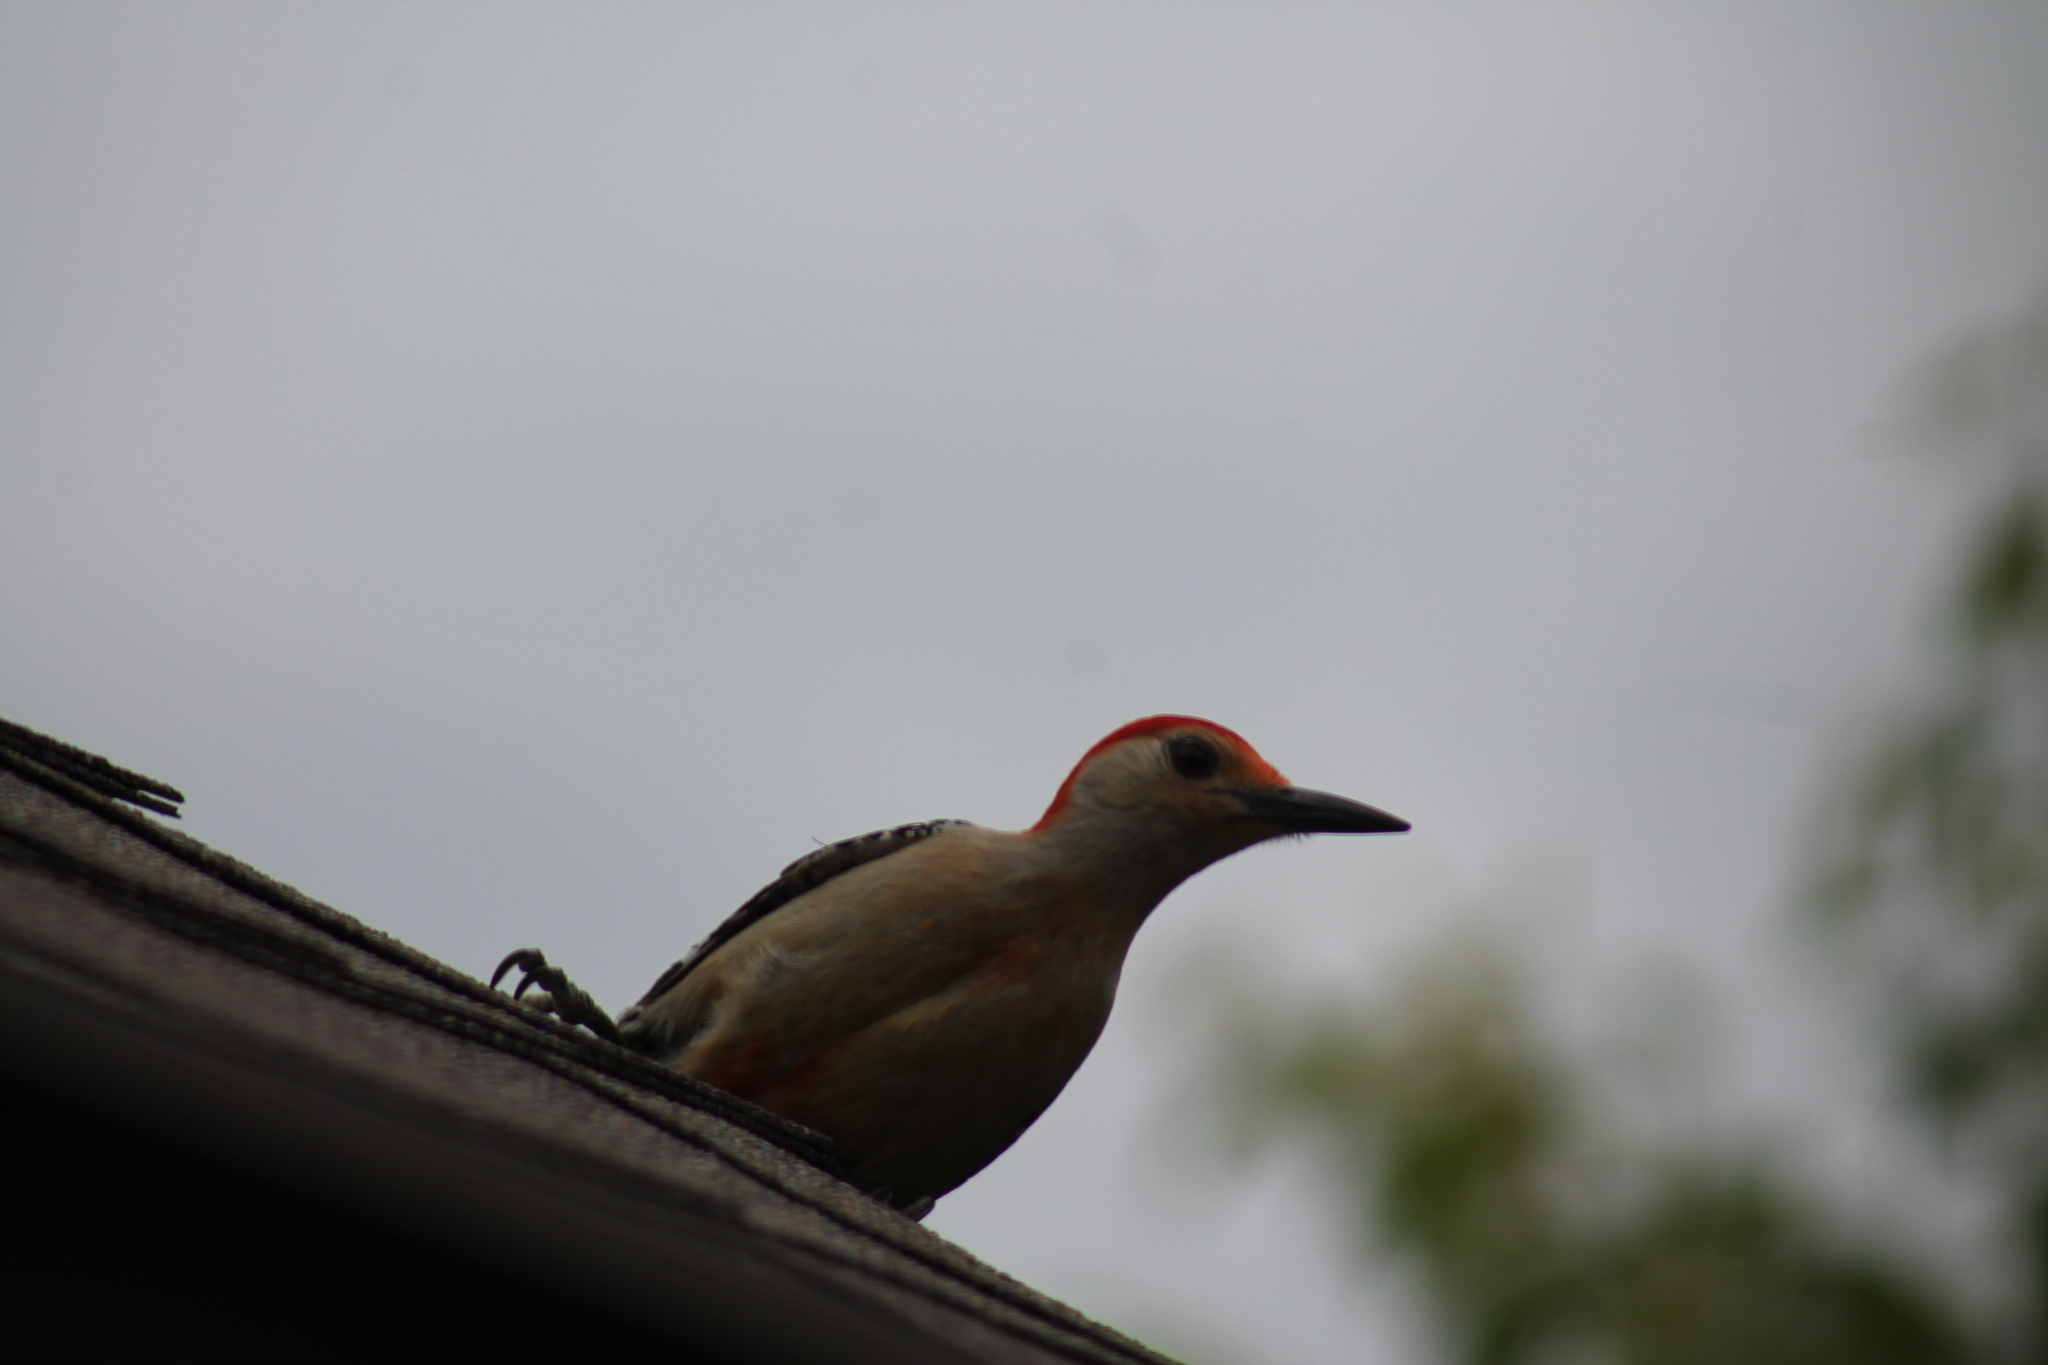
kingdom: Animalia
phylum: Chordata
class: Aves
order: Piciformes
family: Picidae
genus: Melanerpes
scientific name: Melanerpes carolinus
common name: Red-bellied woodpecker
